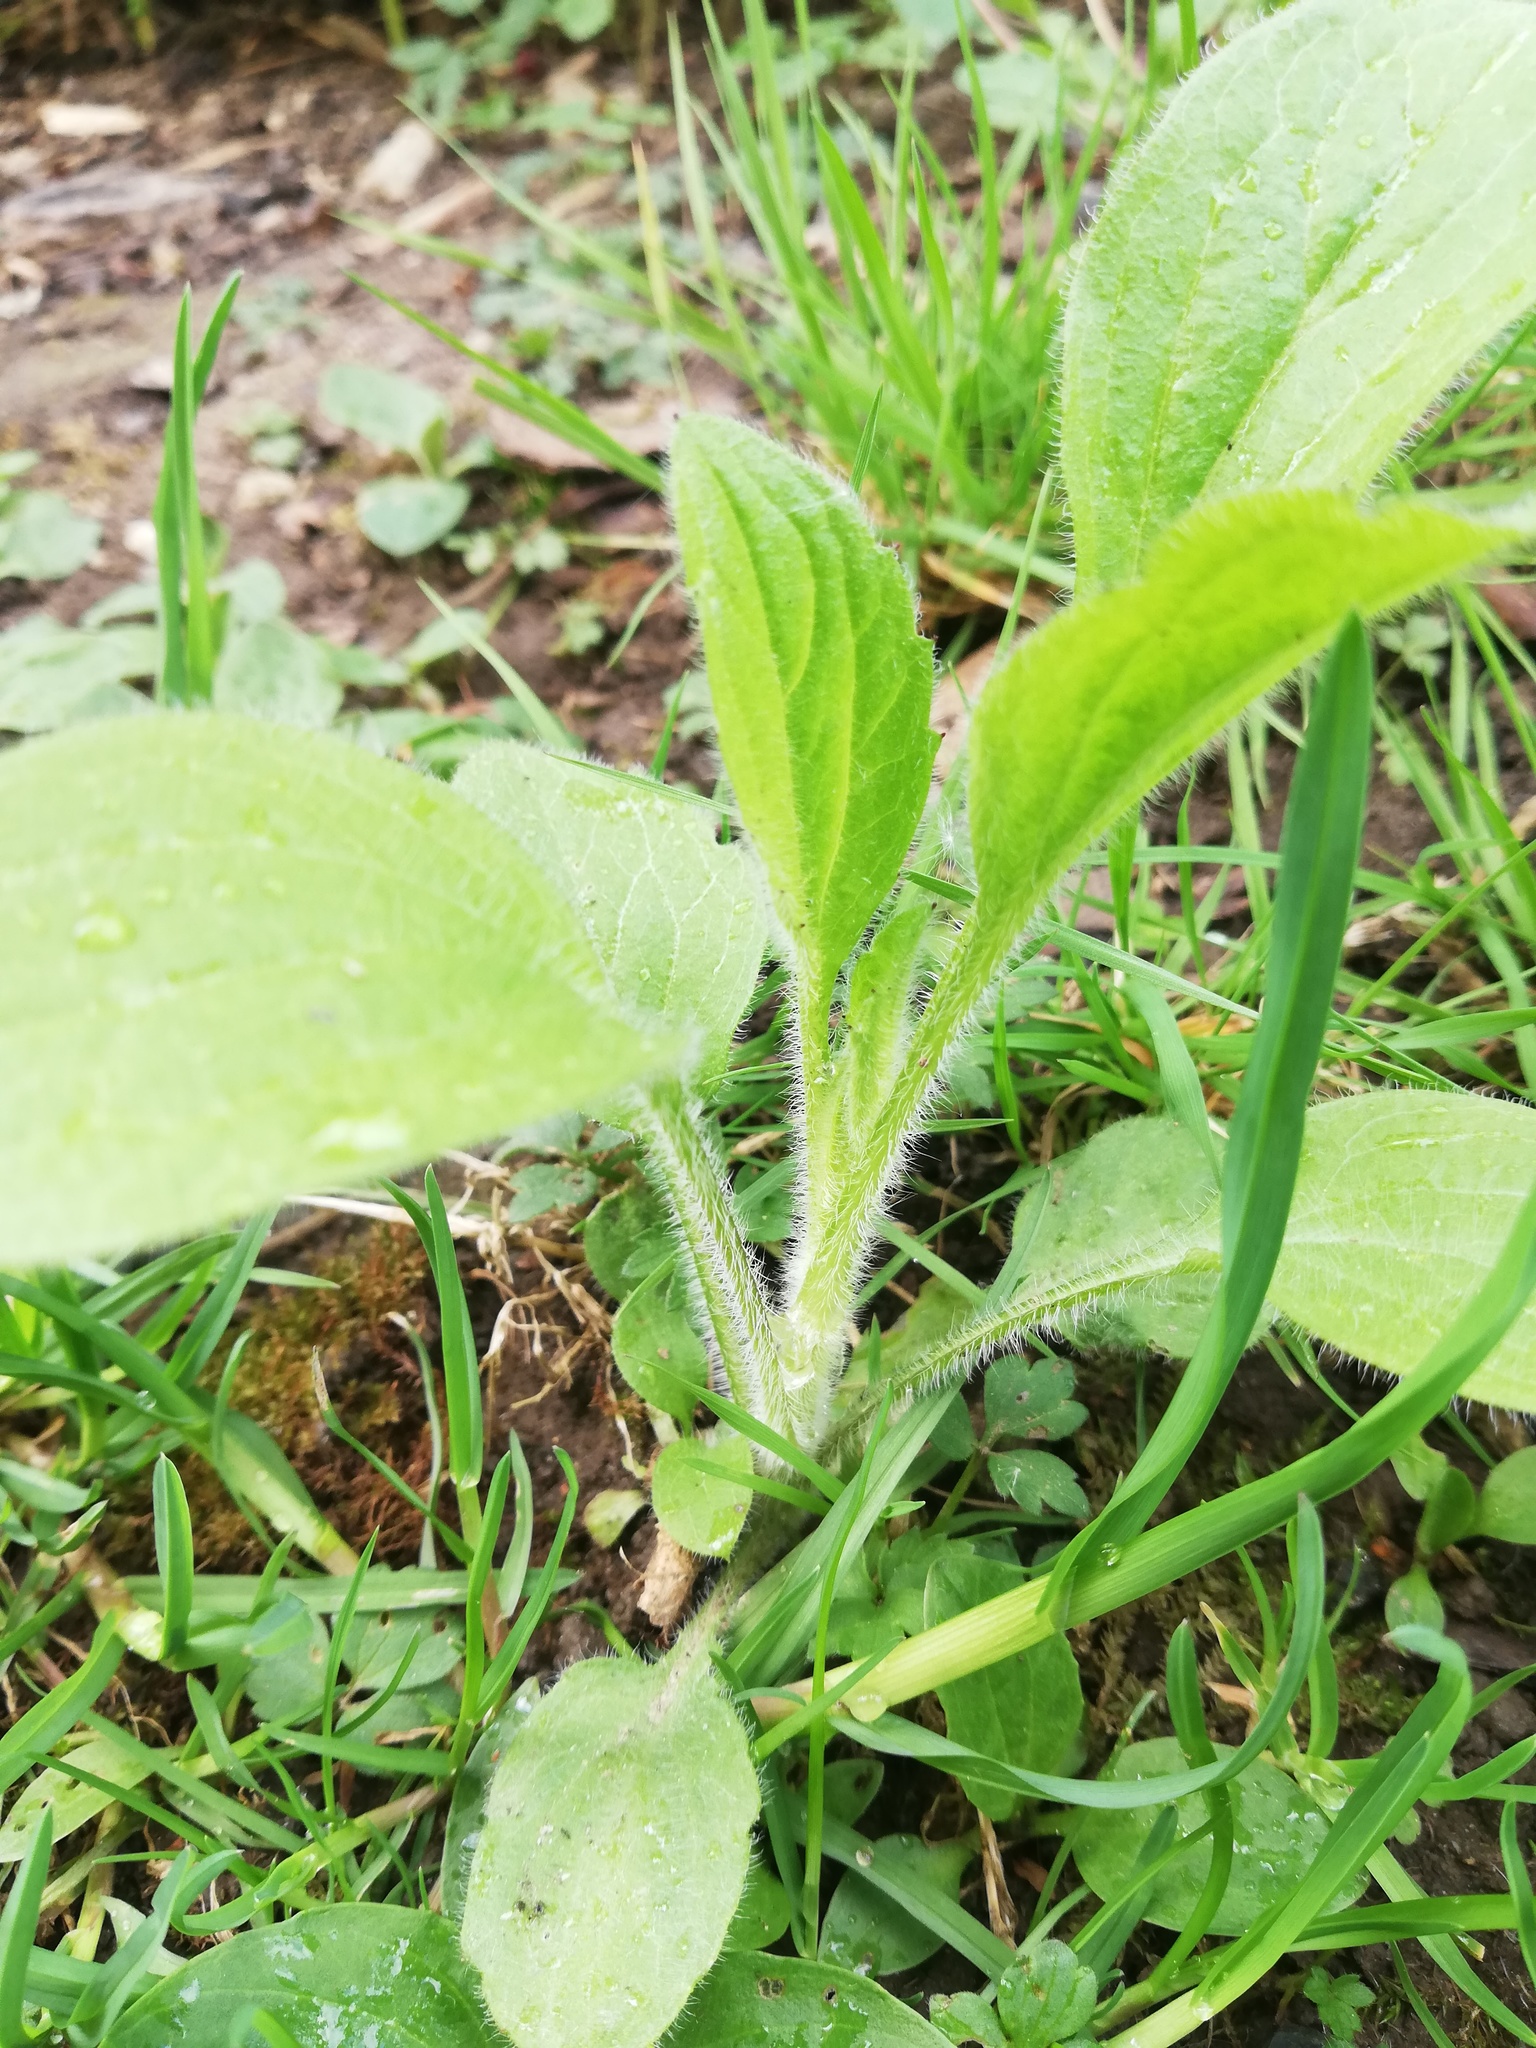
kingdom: Plantae
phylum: Tracheophyta
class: Magnoliopsida
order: Asterales
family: Asteraceae
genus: Erigeron
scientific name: Erigeron annuus
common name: Tall fleabane
